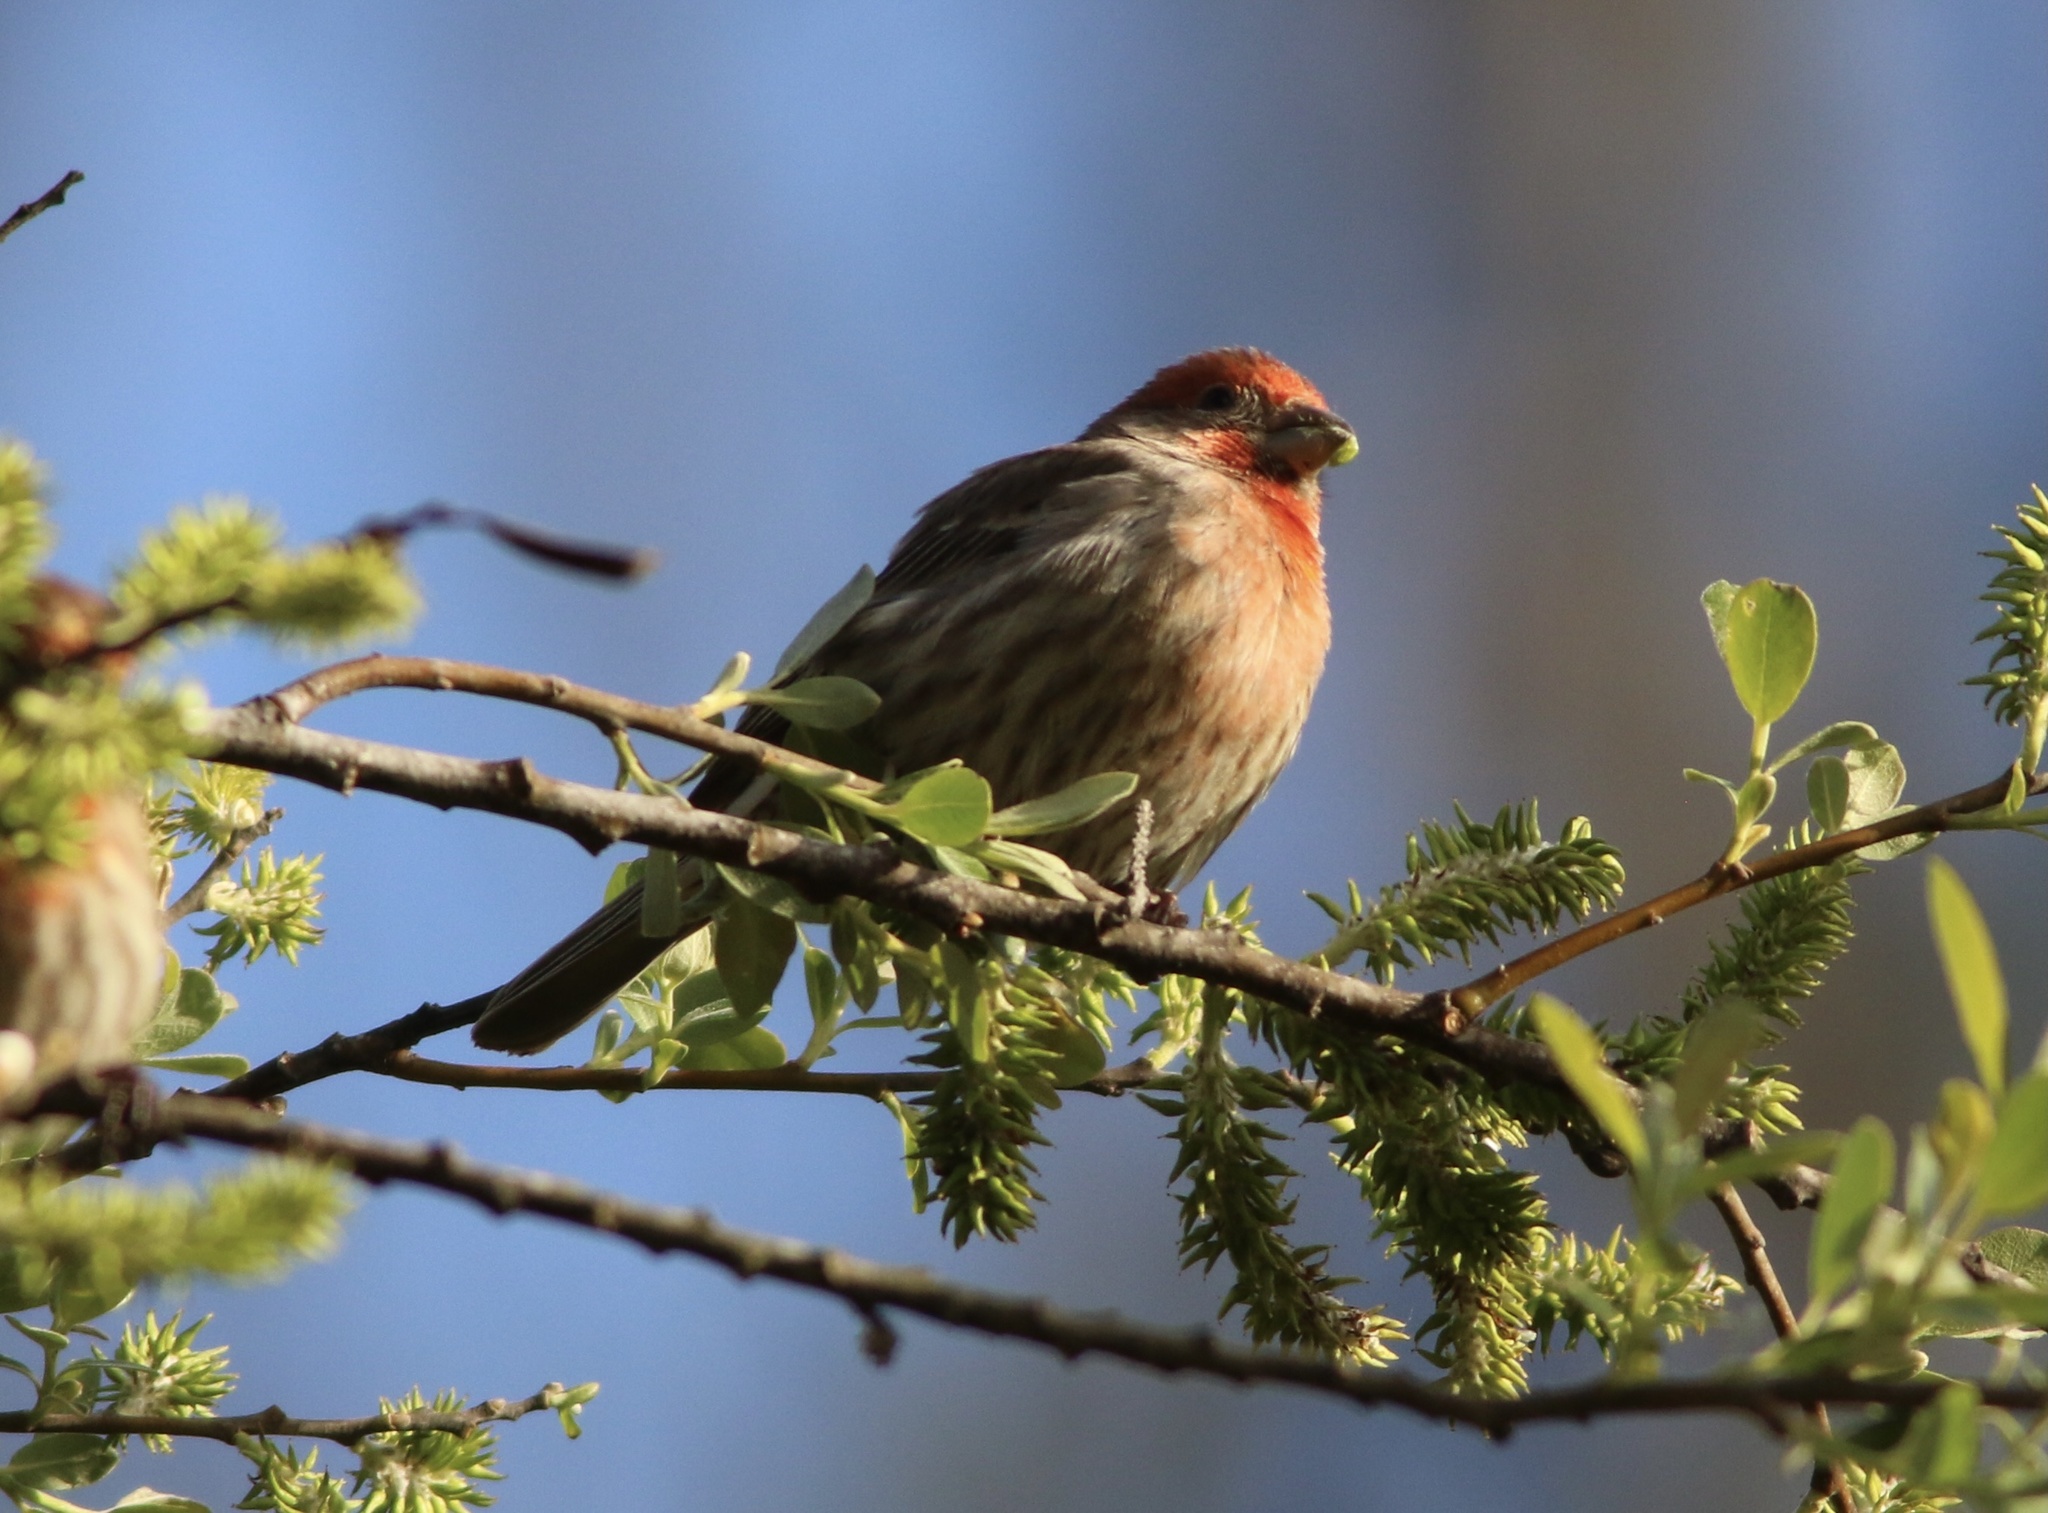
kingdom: Animalia
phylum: Chordata
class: Aves
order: Passeriformes
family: Fringillidae
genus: Haemorhous
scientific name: Haemorhous mexicanus
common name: House finch
